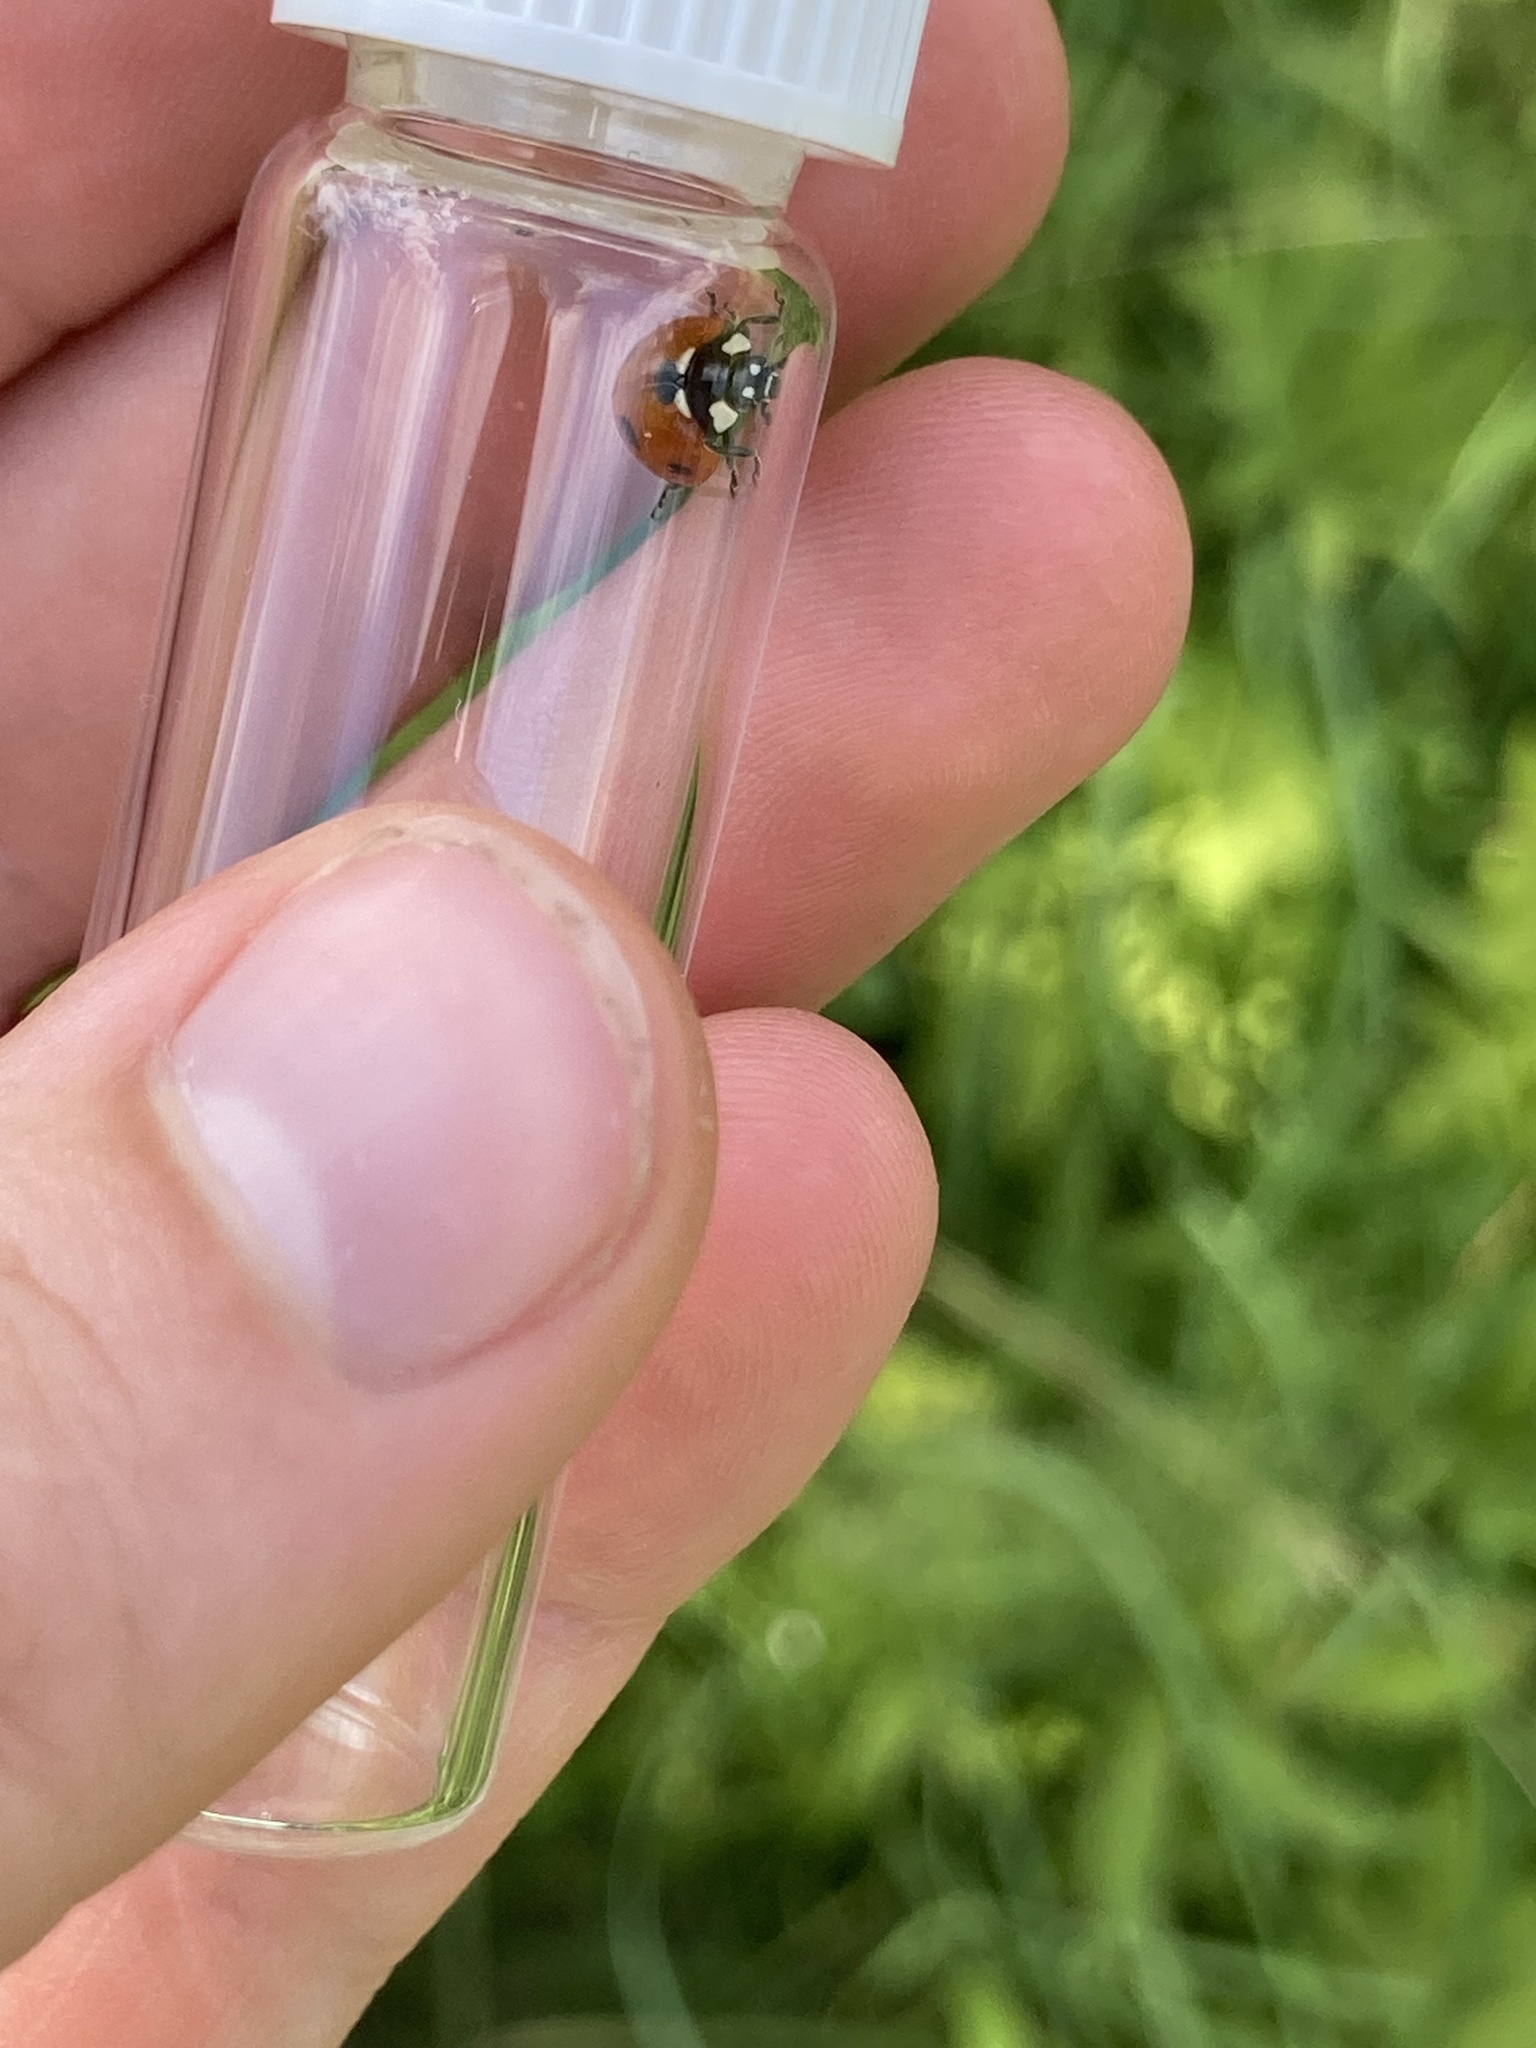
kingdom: Animalia
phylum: Arthropoda
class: Insecta
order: Coleoptera
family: Coccinellidae
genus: Coccinella
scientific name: Coccinella septempunctata
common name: Sevenspotted lady beetle
